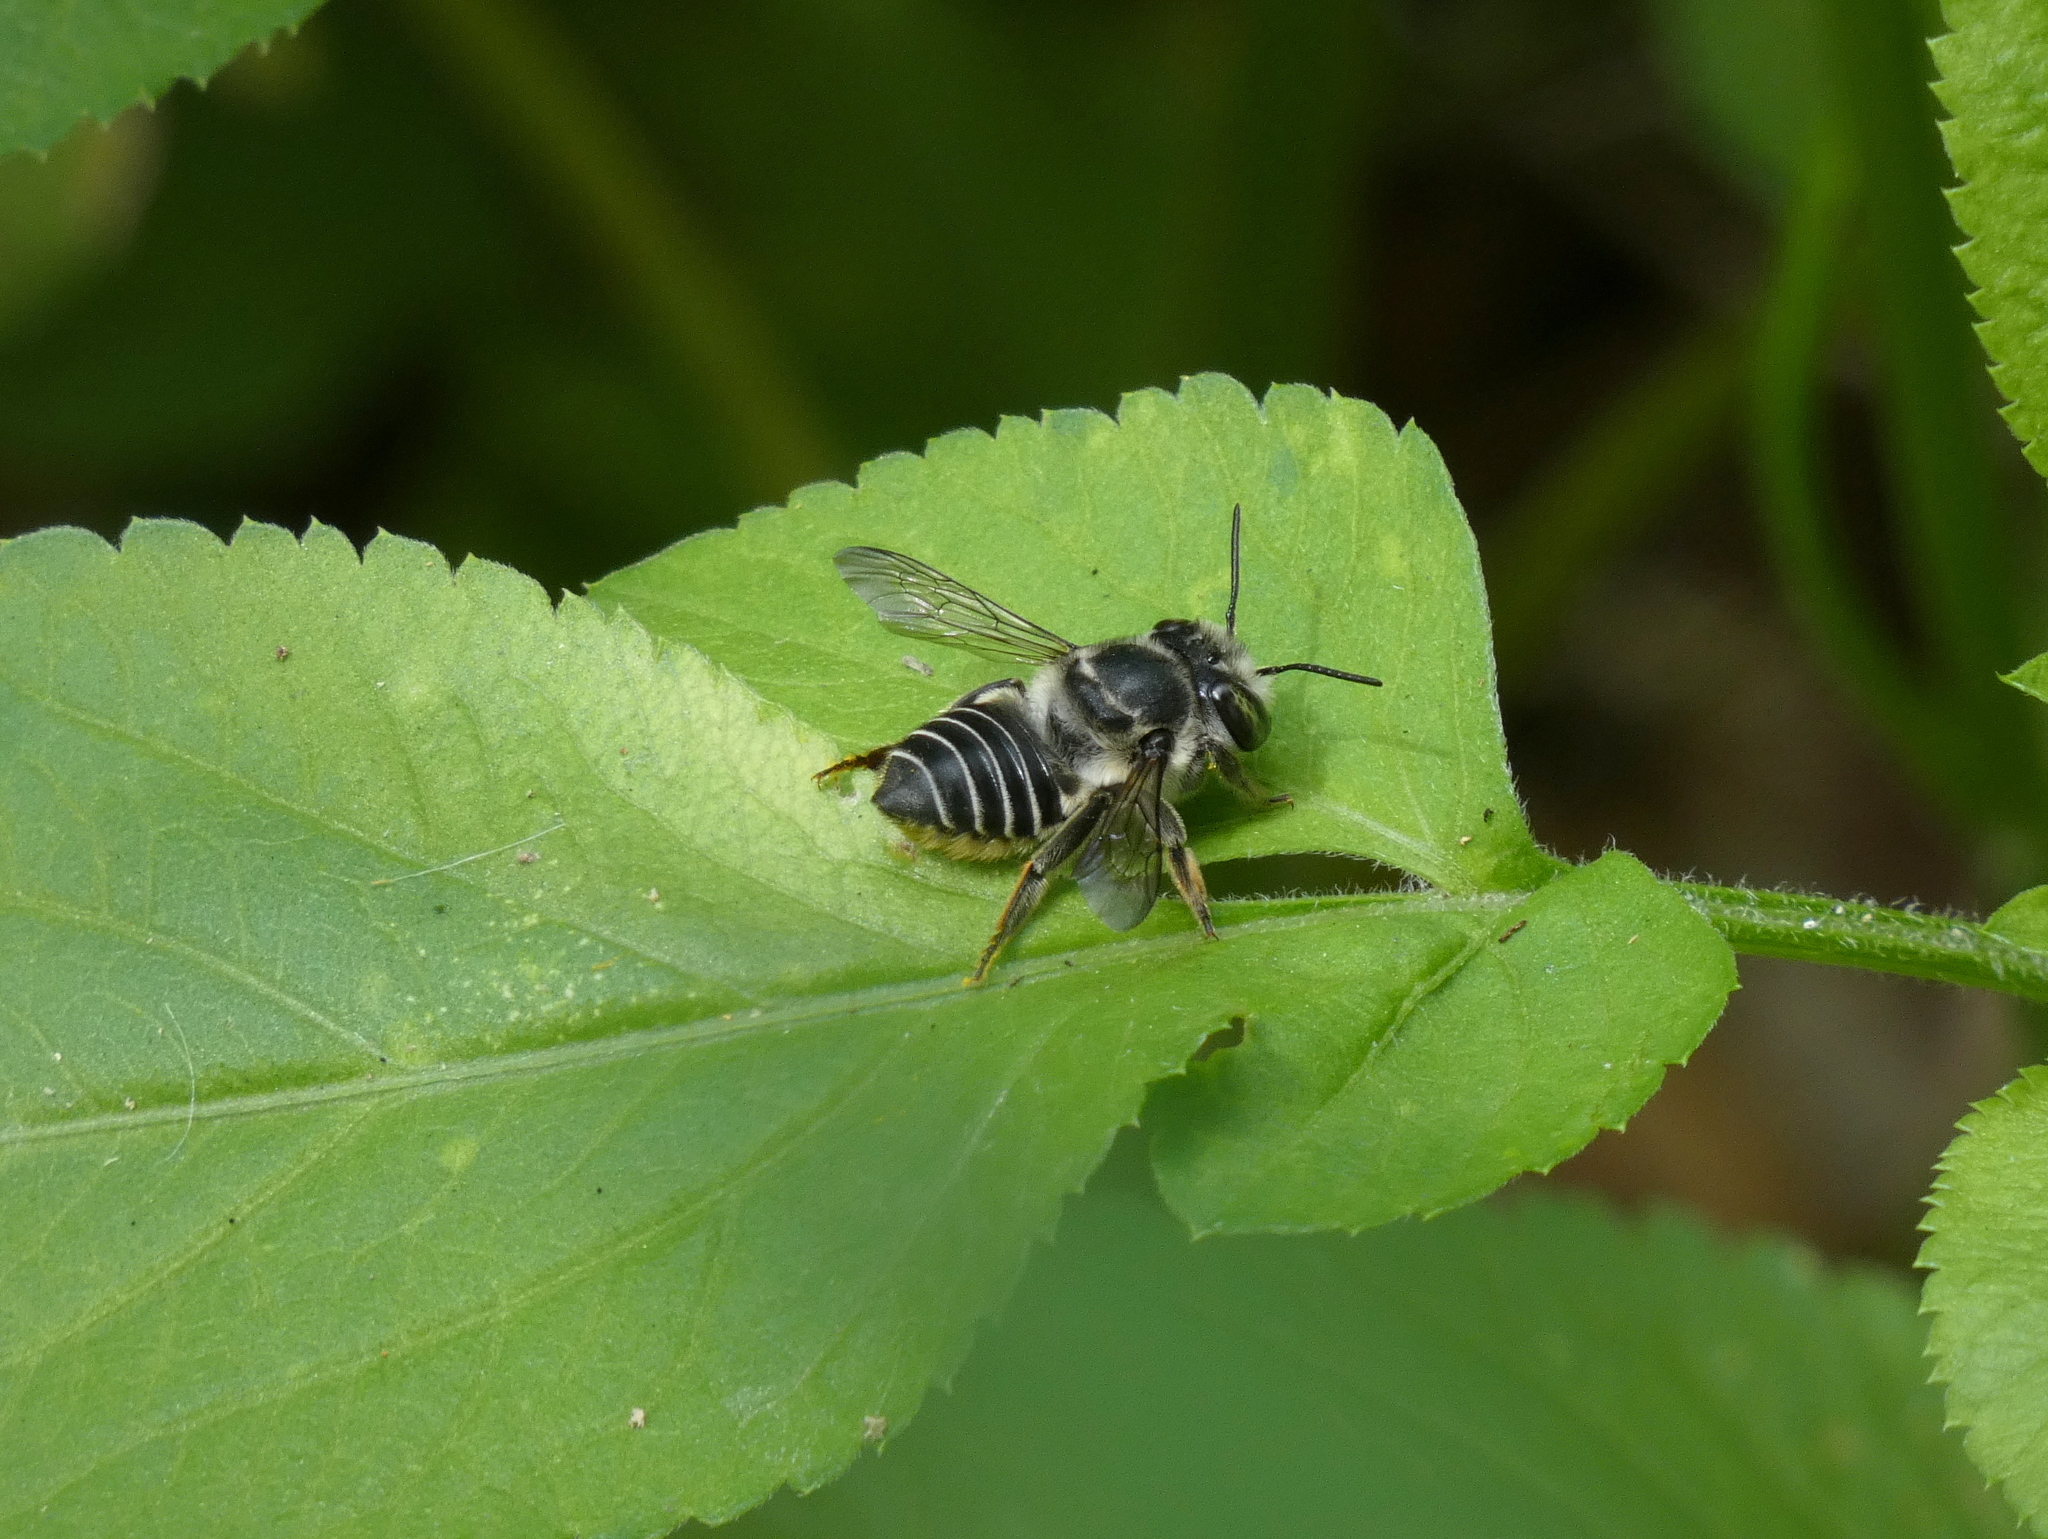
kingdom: Animalia
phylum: Arthropoda
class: Insecta
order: Hymenoptera
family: Megachilidae
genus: Megachile
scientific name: Megachile petulans
